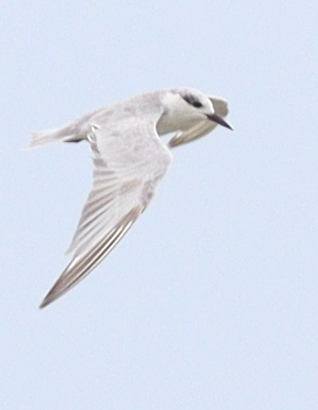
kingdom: Animalia
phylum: Chordata
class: Aves
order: Charadriiformes
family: Laridae
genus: Chlidonias
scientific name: Chlidonias hybrida
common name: Whiskered tern
